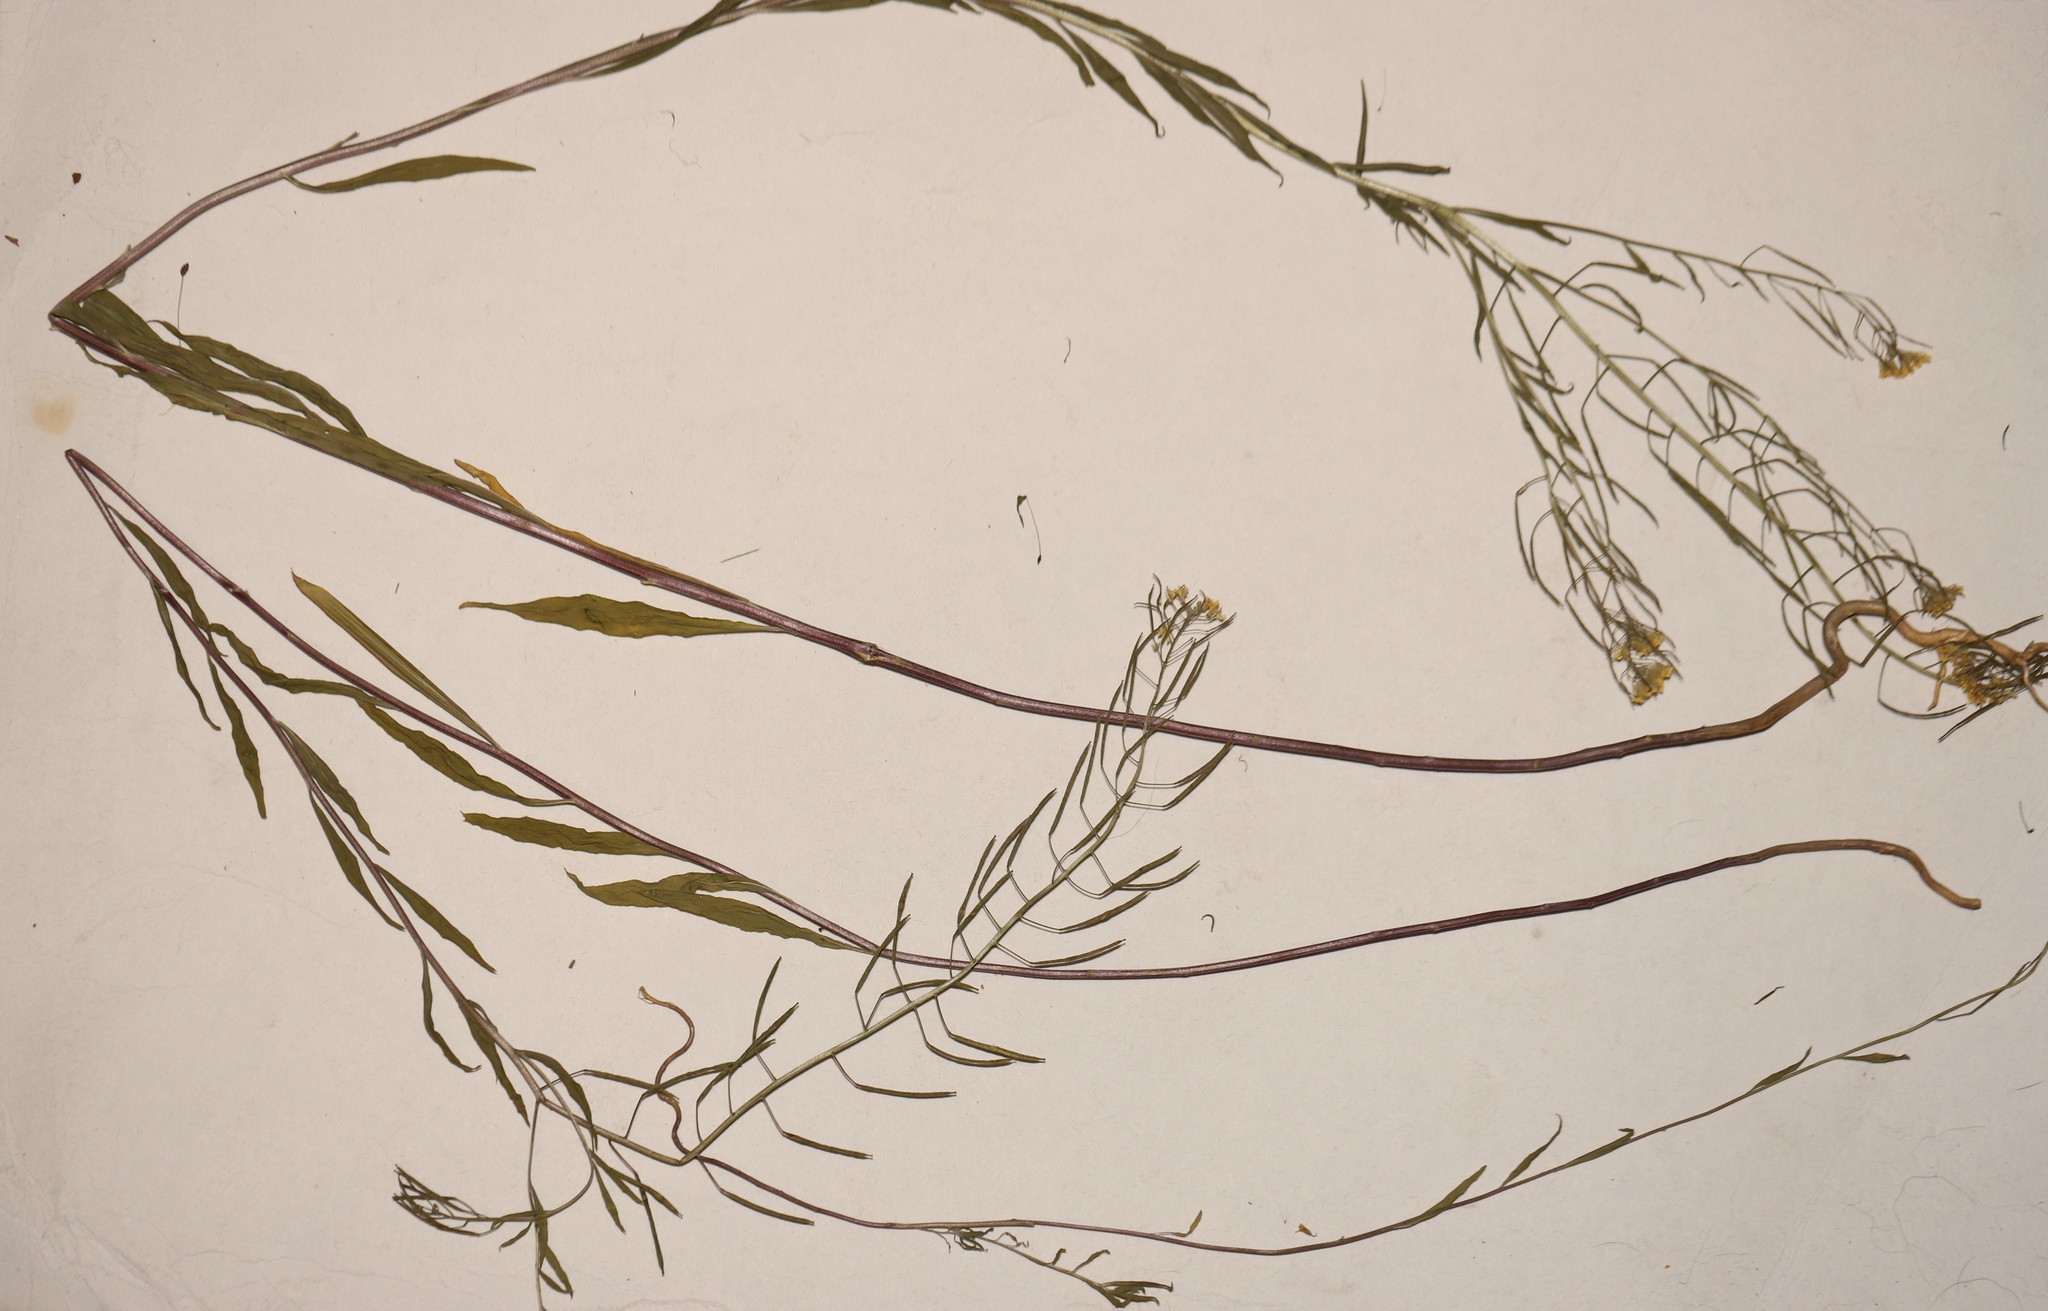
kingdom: Plantae
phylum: Tracheophyta
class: Magnoliopsida
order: Brassicales
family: Brassicaceae
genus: Erysimum
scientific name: Erysimum cheiranthoides
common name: Treacle mustard
